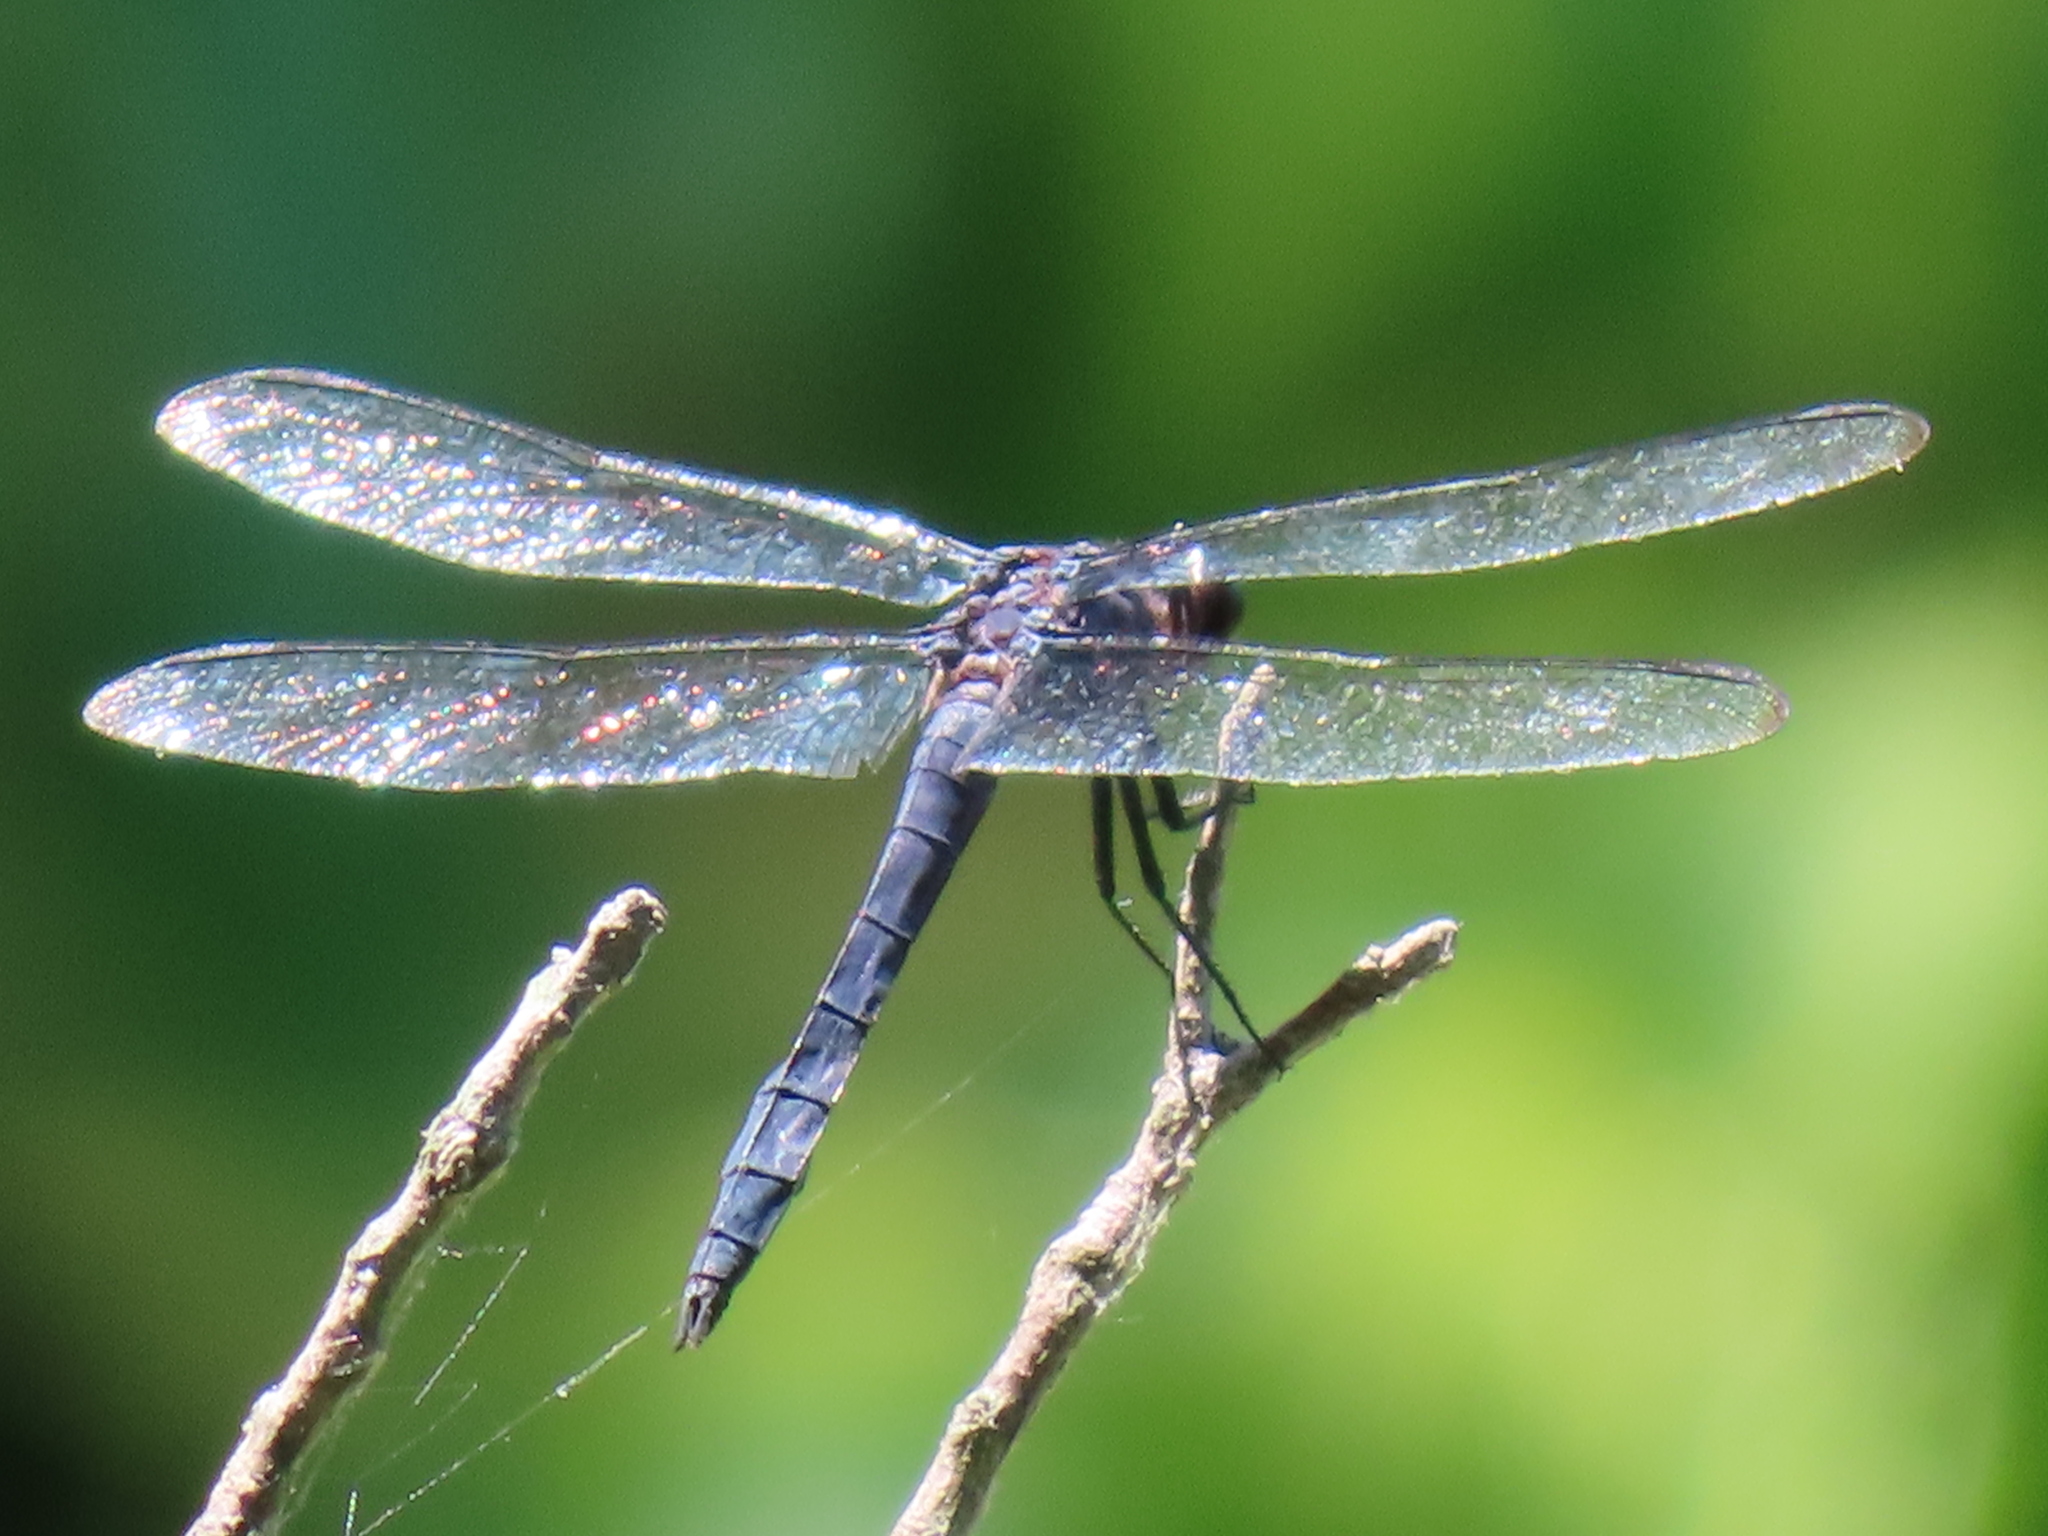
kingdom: Animalia
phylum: Arthropoda
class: Insecta
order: Odonata
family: Libellulidae
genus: Libellula
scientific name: Libellula incesta
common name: Slaty skimmer
